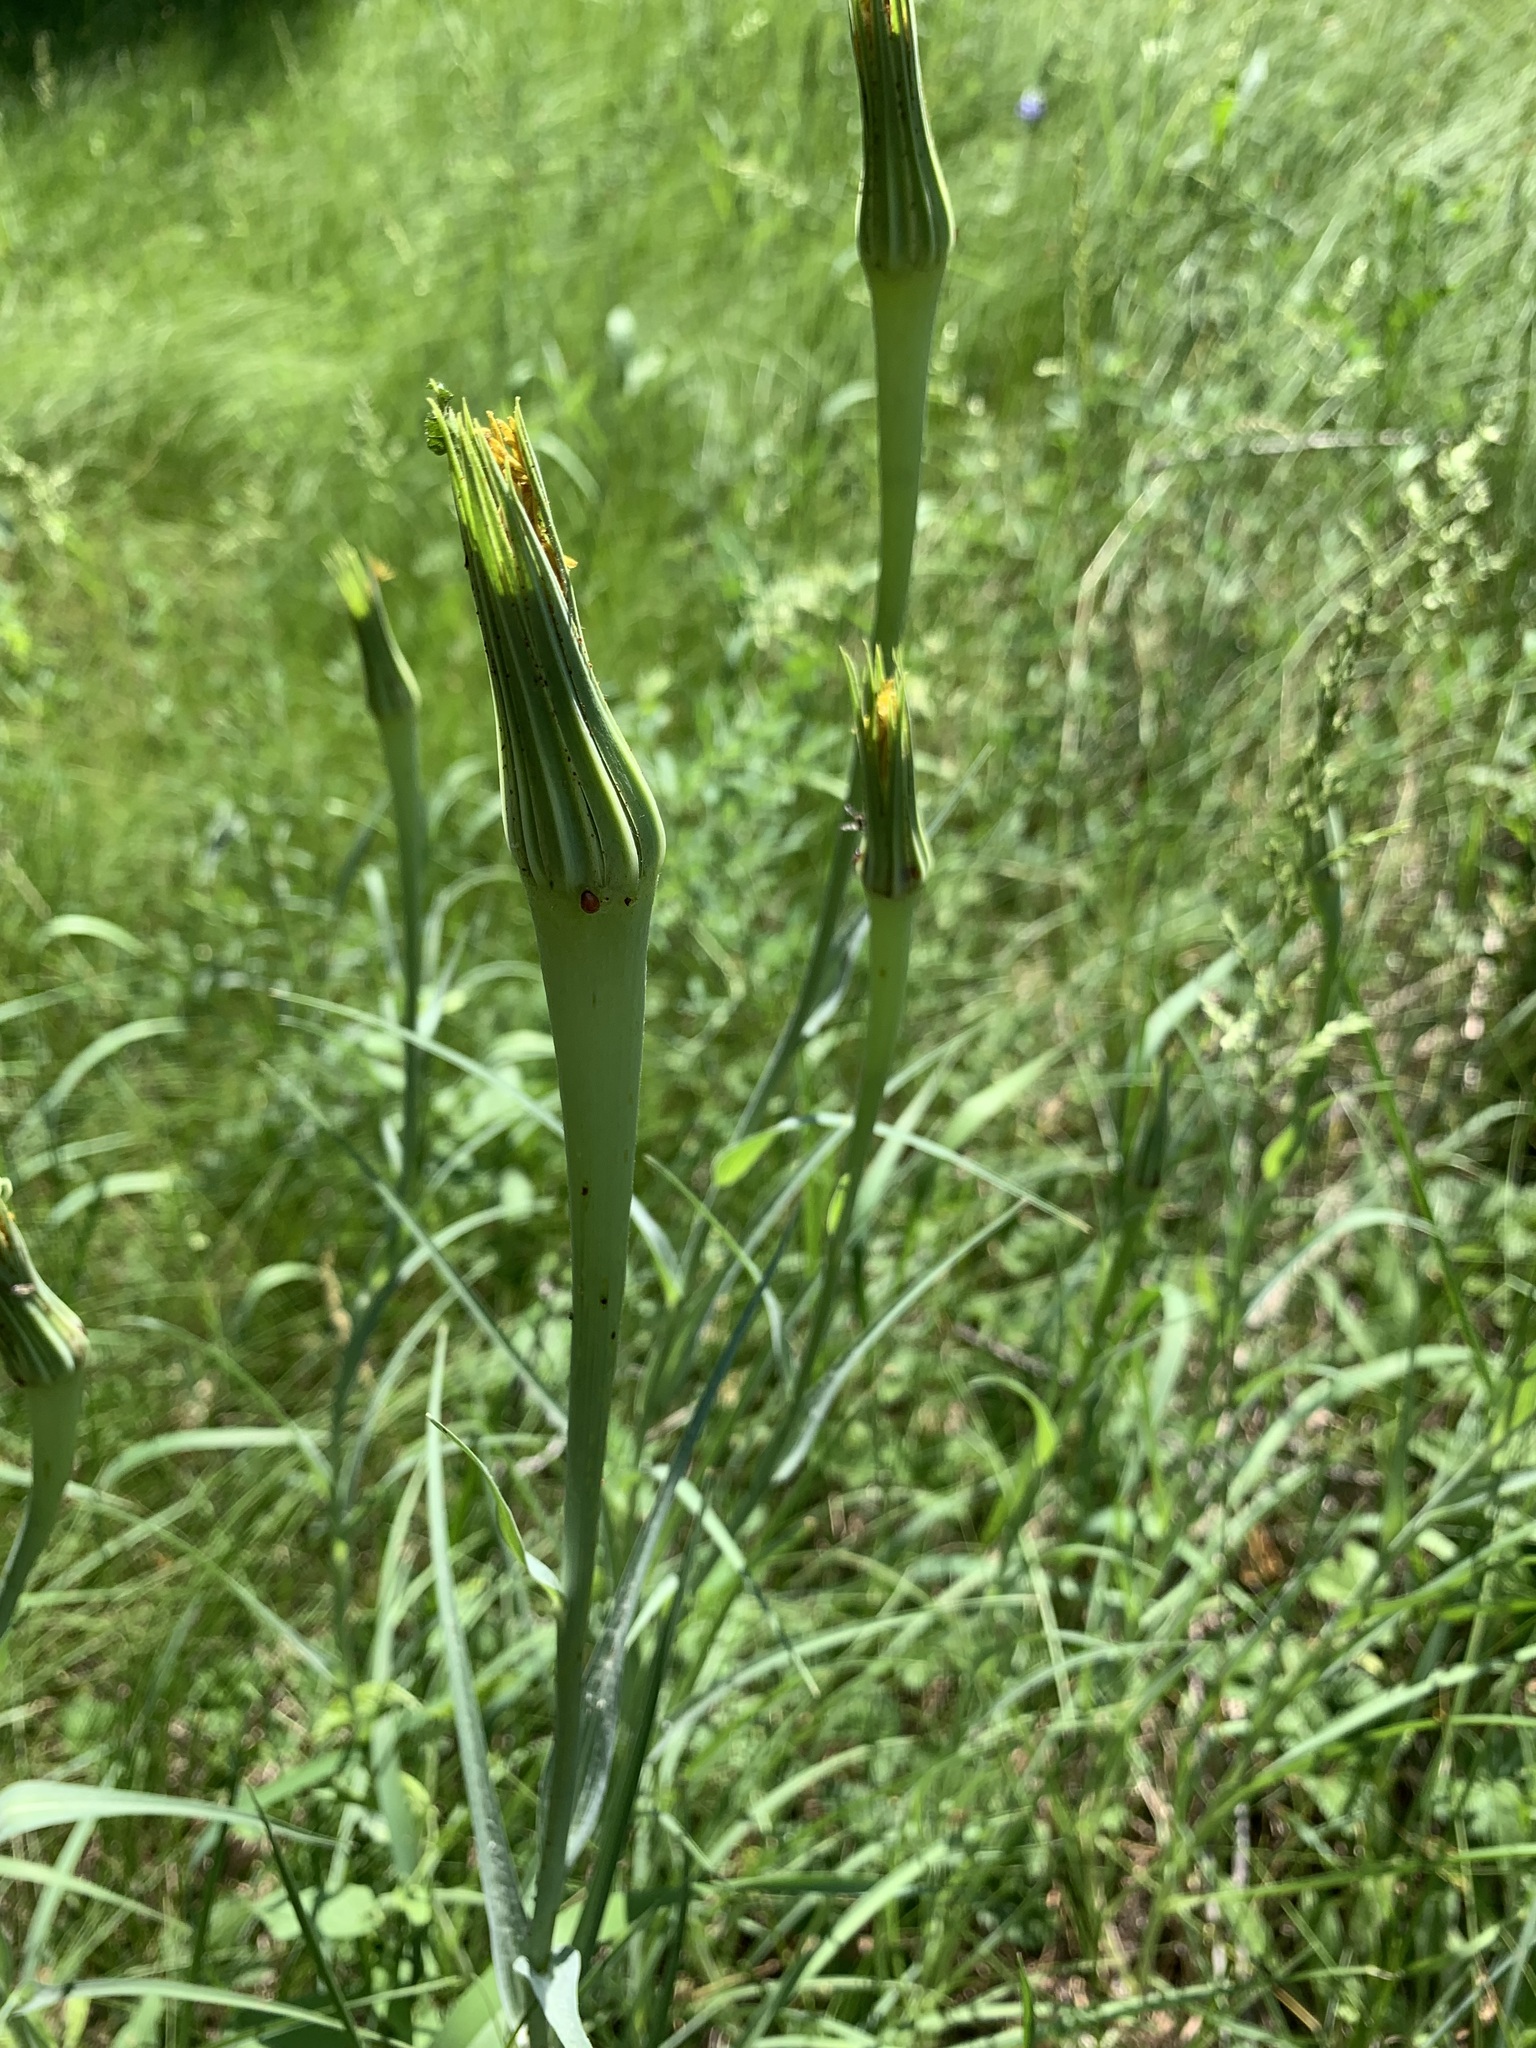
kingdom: Plantae
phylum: Tracheophyta
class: Magnoliopsida
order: Asterales
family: Asteraceae
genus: Tragopogon
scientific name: Tragopogon dubius
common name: Yellow salsify
